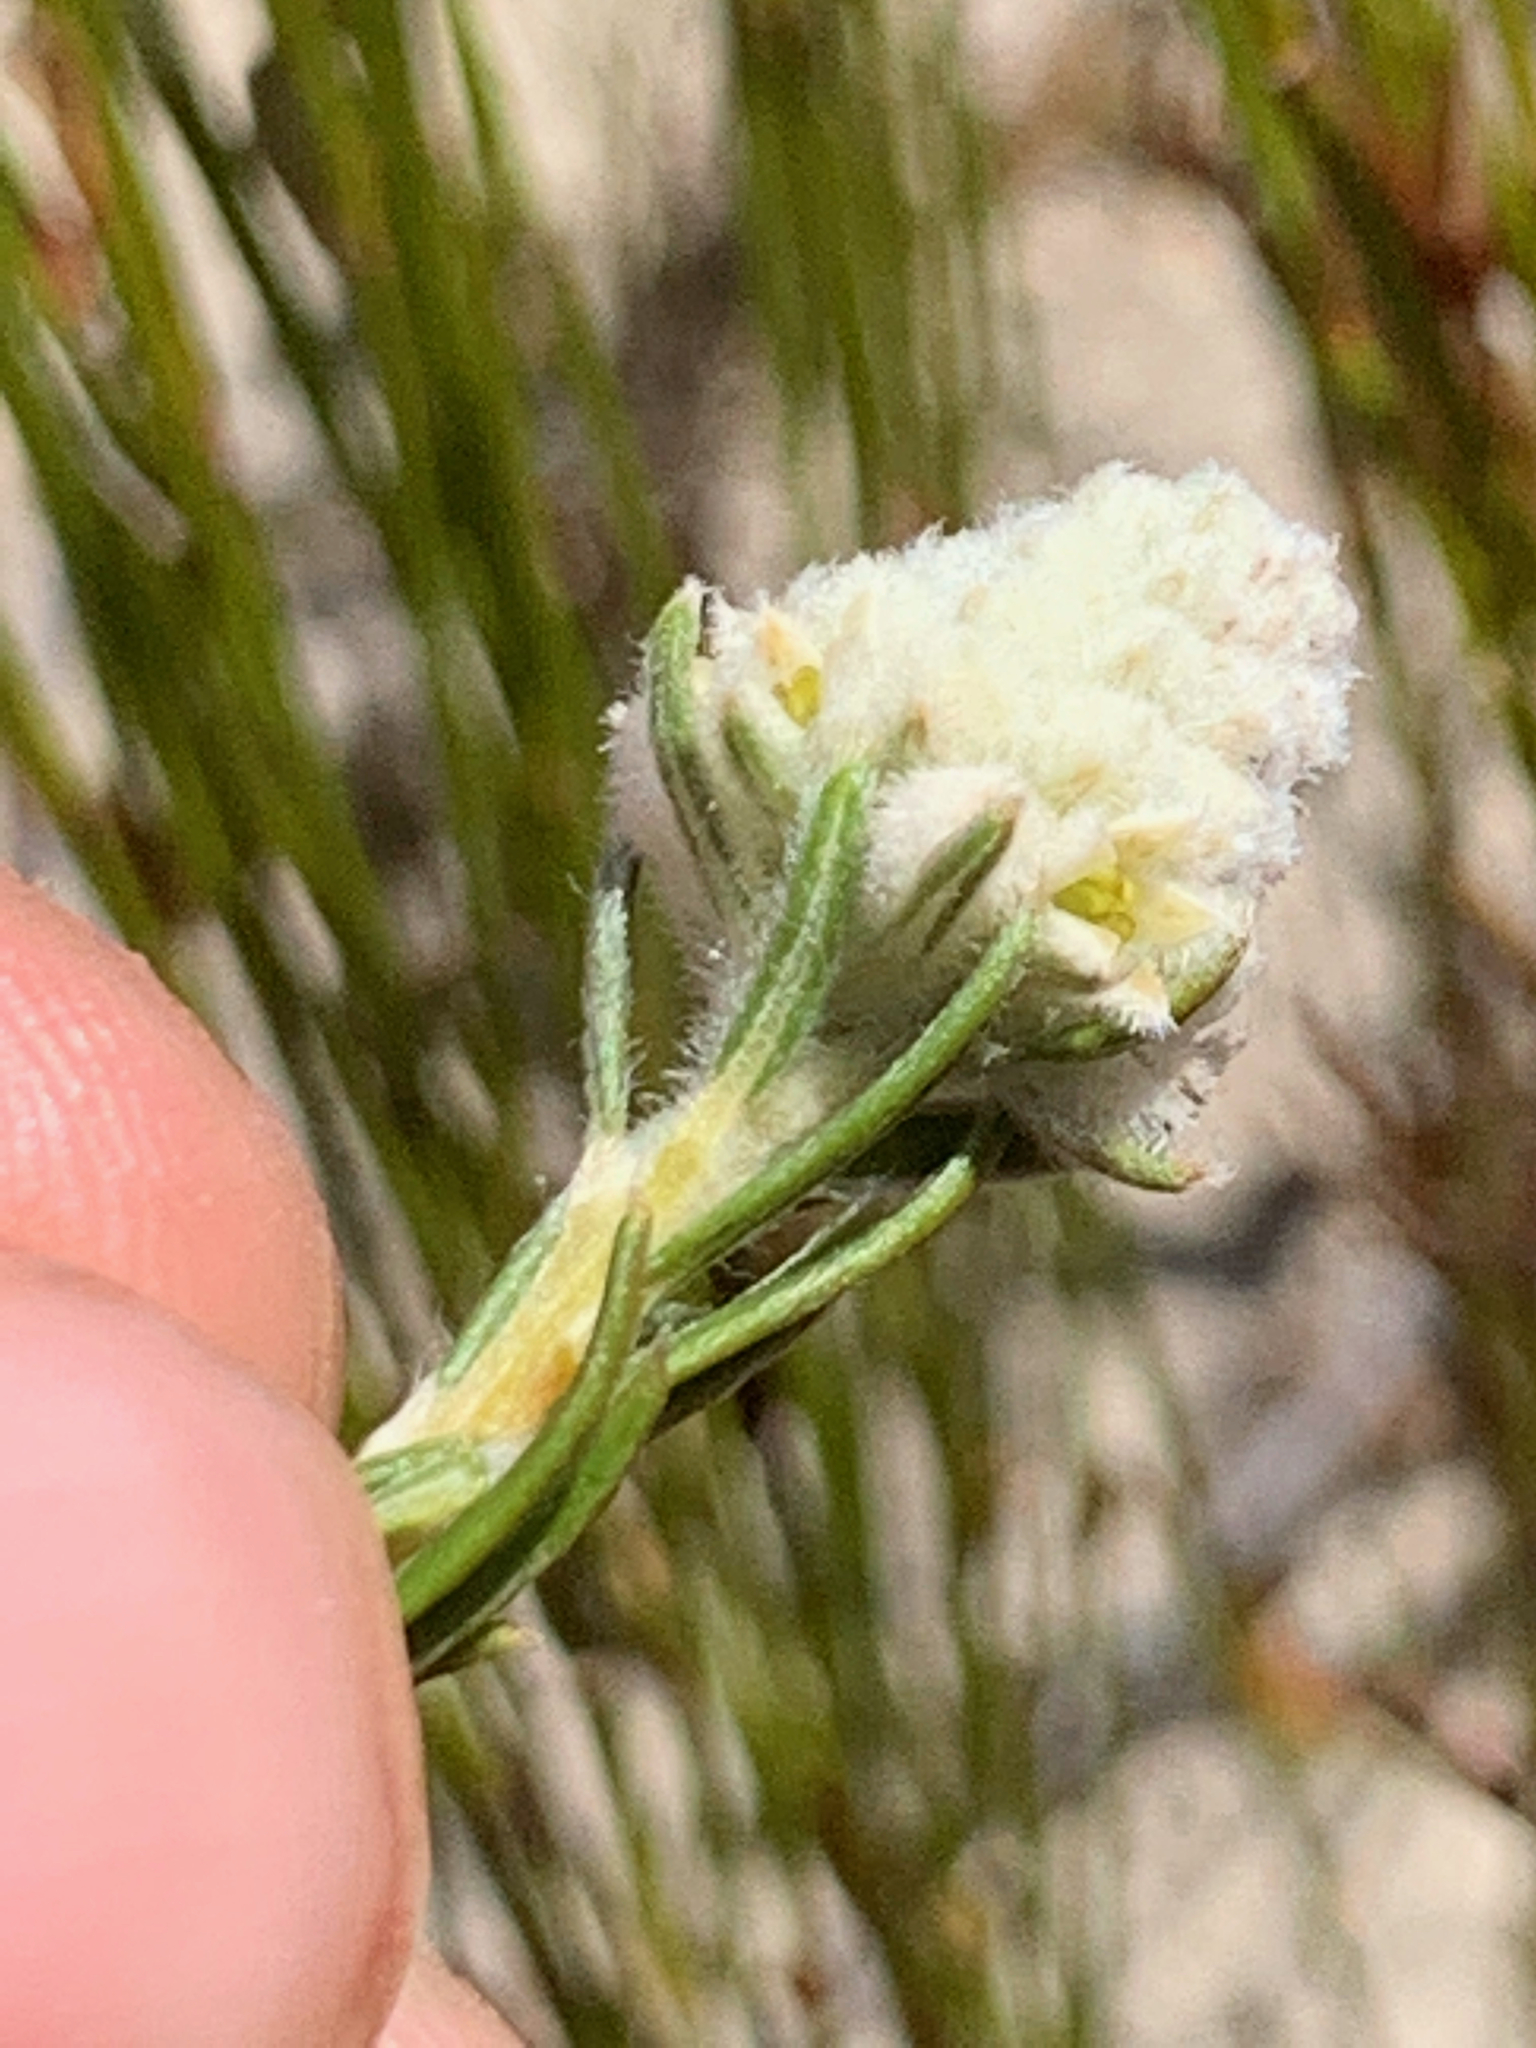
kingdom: Plantae
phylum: Tracheophyta
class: Magnoliopsida
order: Rosales
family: Rhamnaceae
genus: Phylica
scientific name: Phylica imberbis
